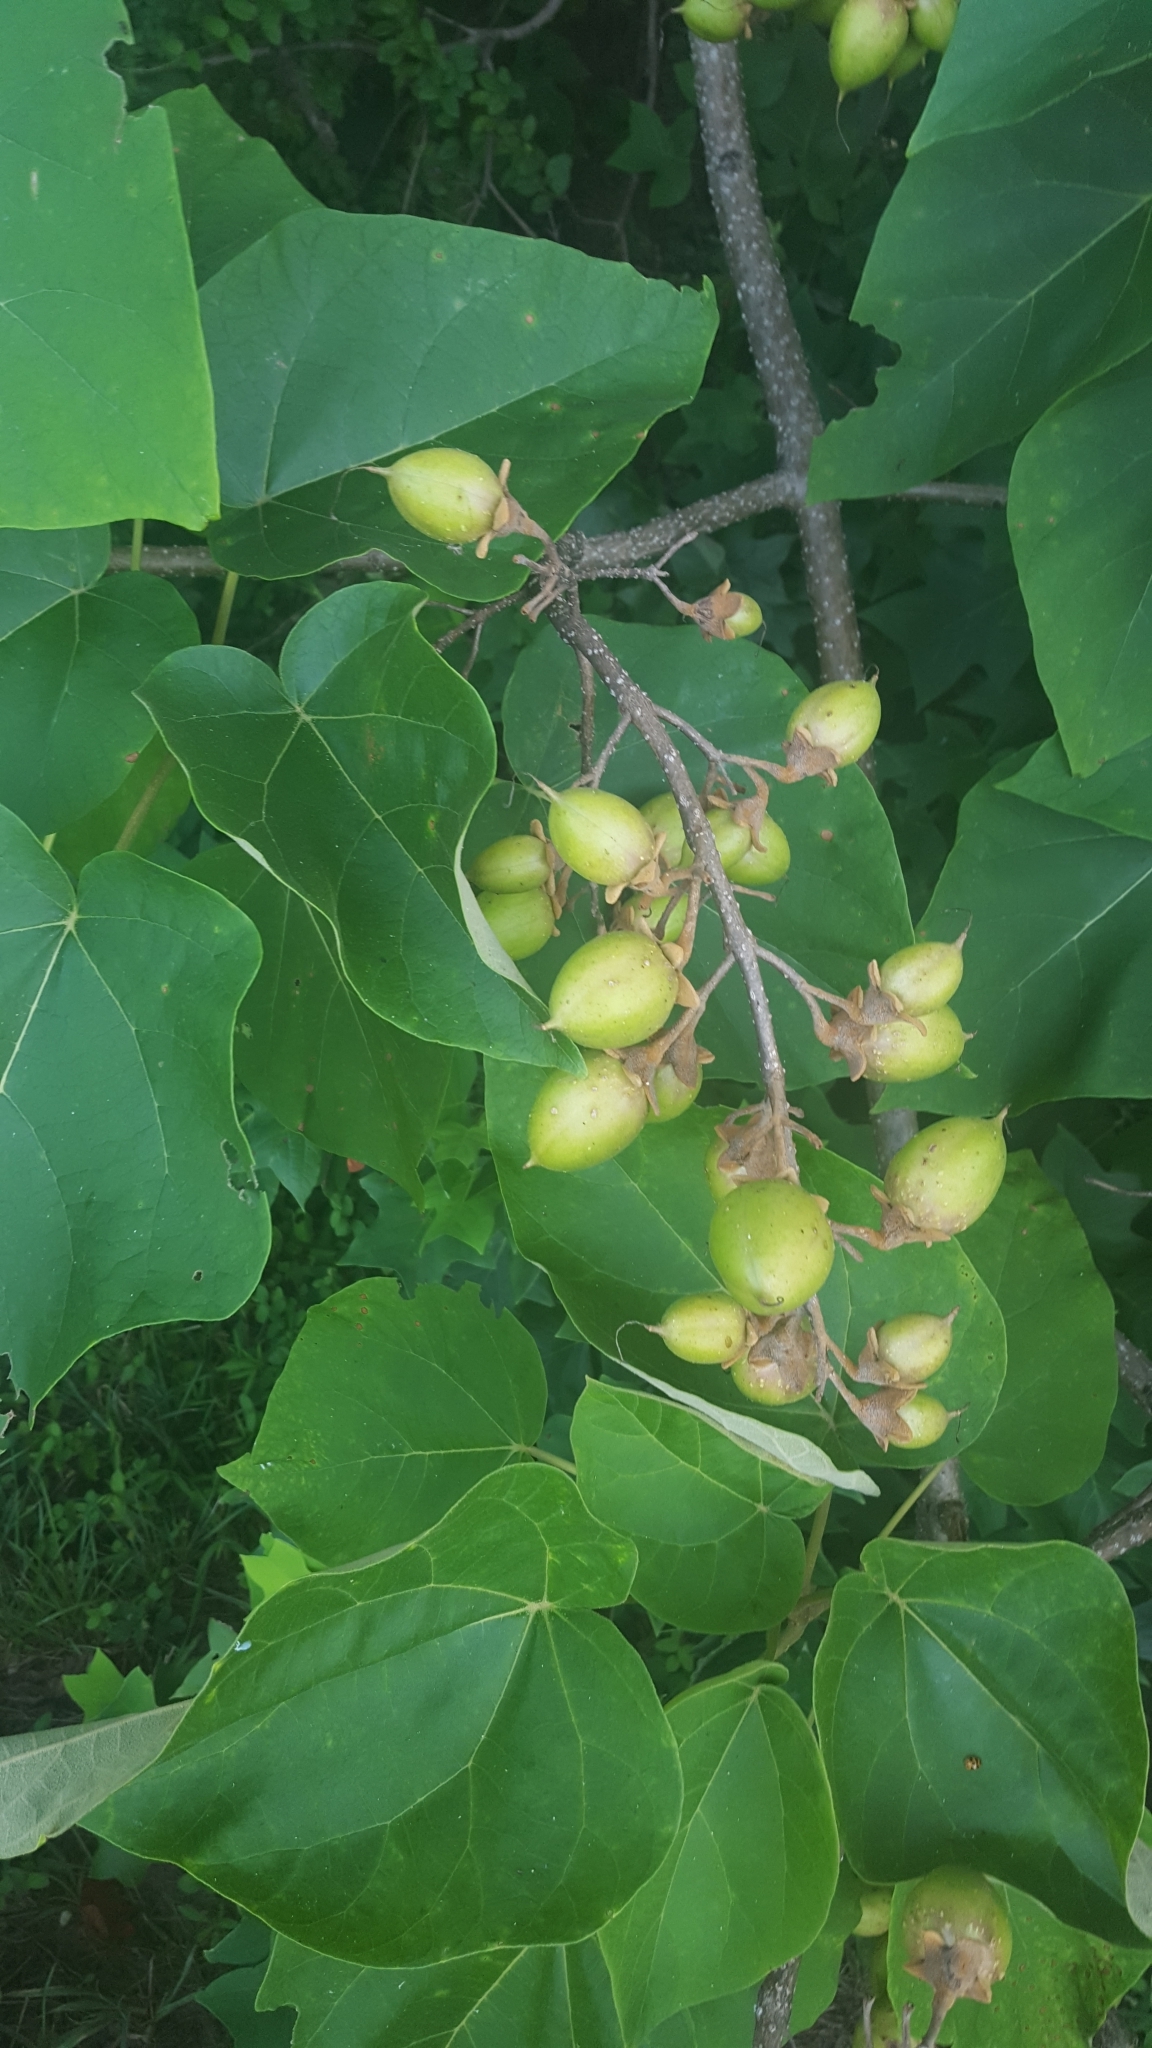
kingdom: Plantae
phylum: Tracheophyta
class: Magnoliopsida
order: Lamiales
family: Paulowniaceae
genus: Paulownia
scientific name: Paulownia tomentosa
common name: Foxglove-tree
